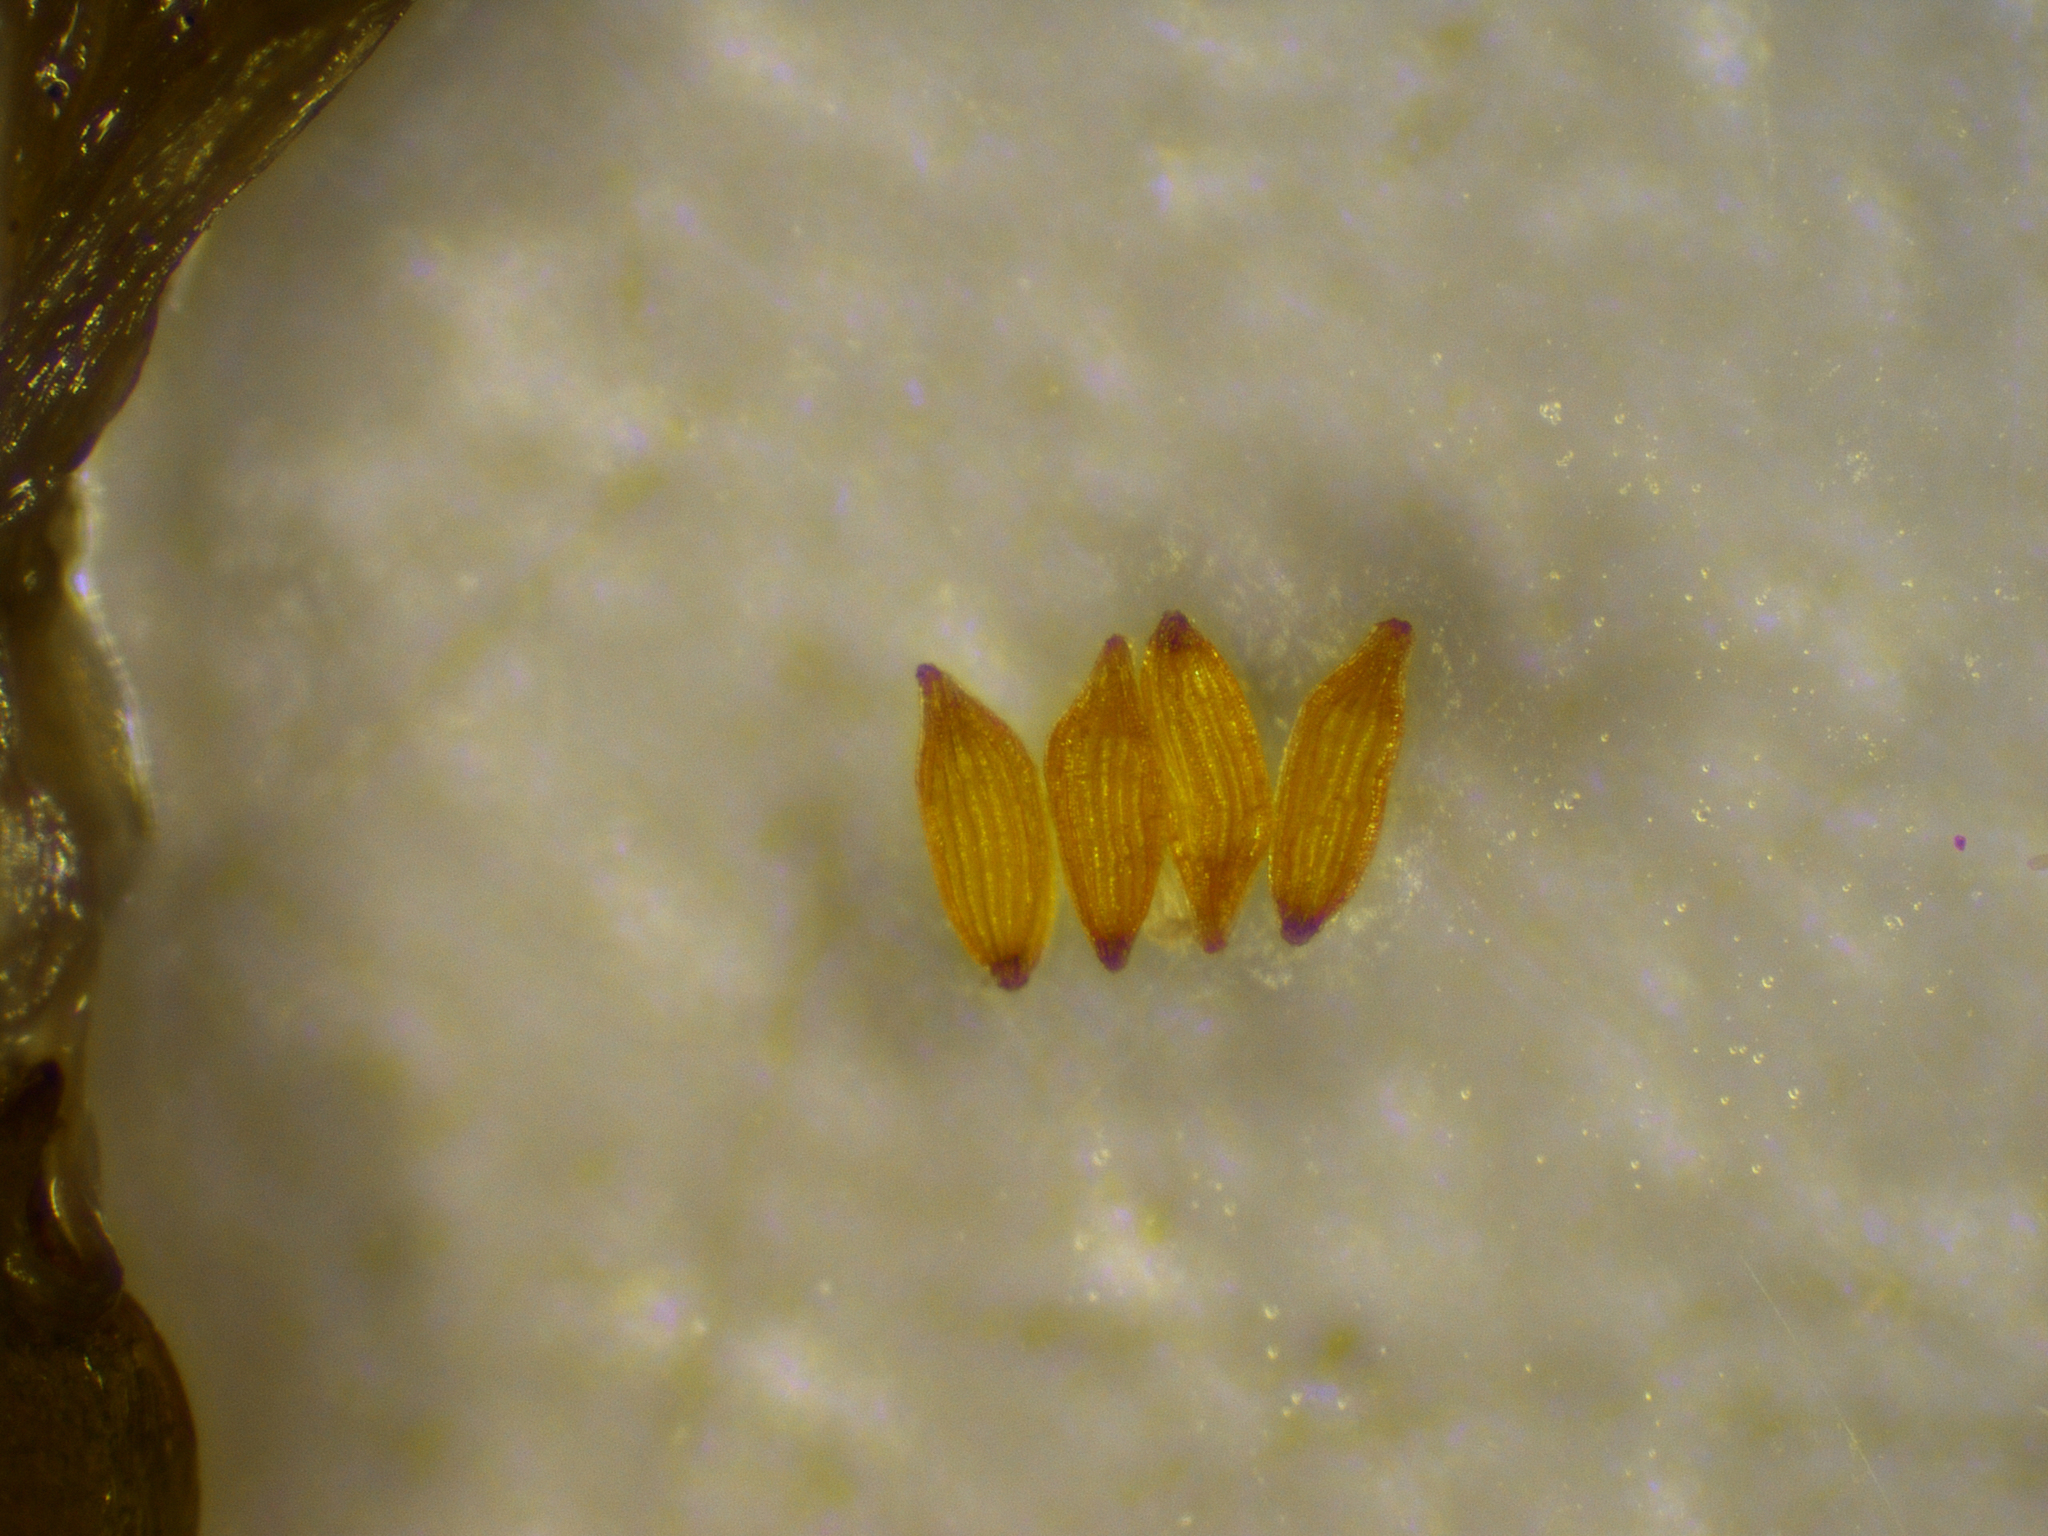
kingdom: Plantae
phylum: Tracheophyta
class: Liliopsida
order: Poales
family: Xyridaceae
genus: Xyris
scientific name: Xyris indica
